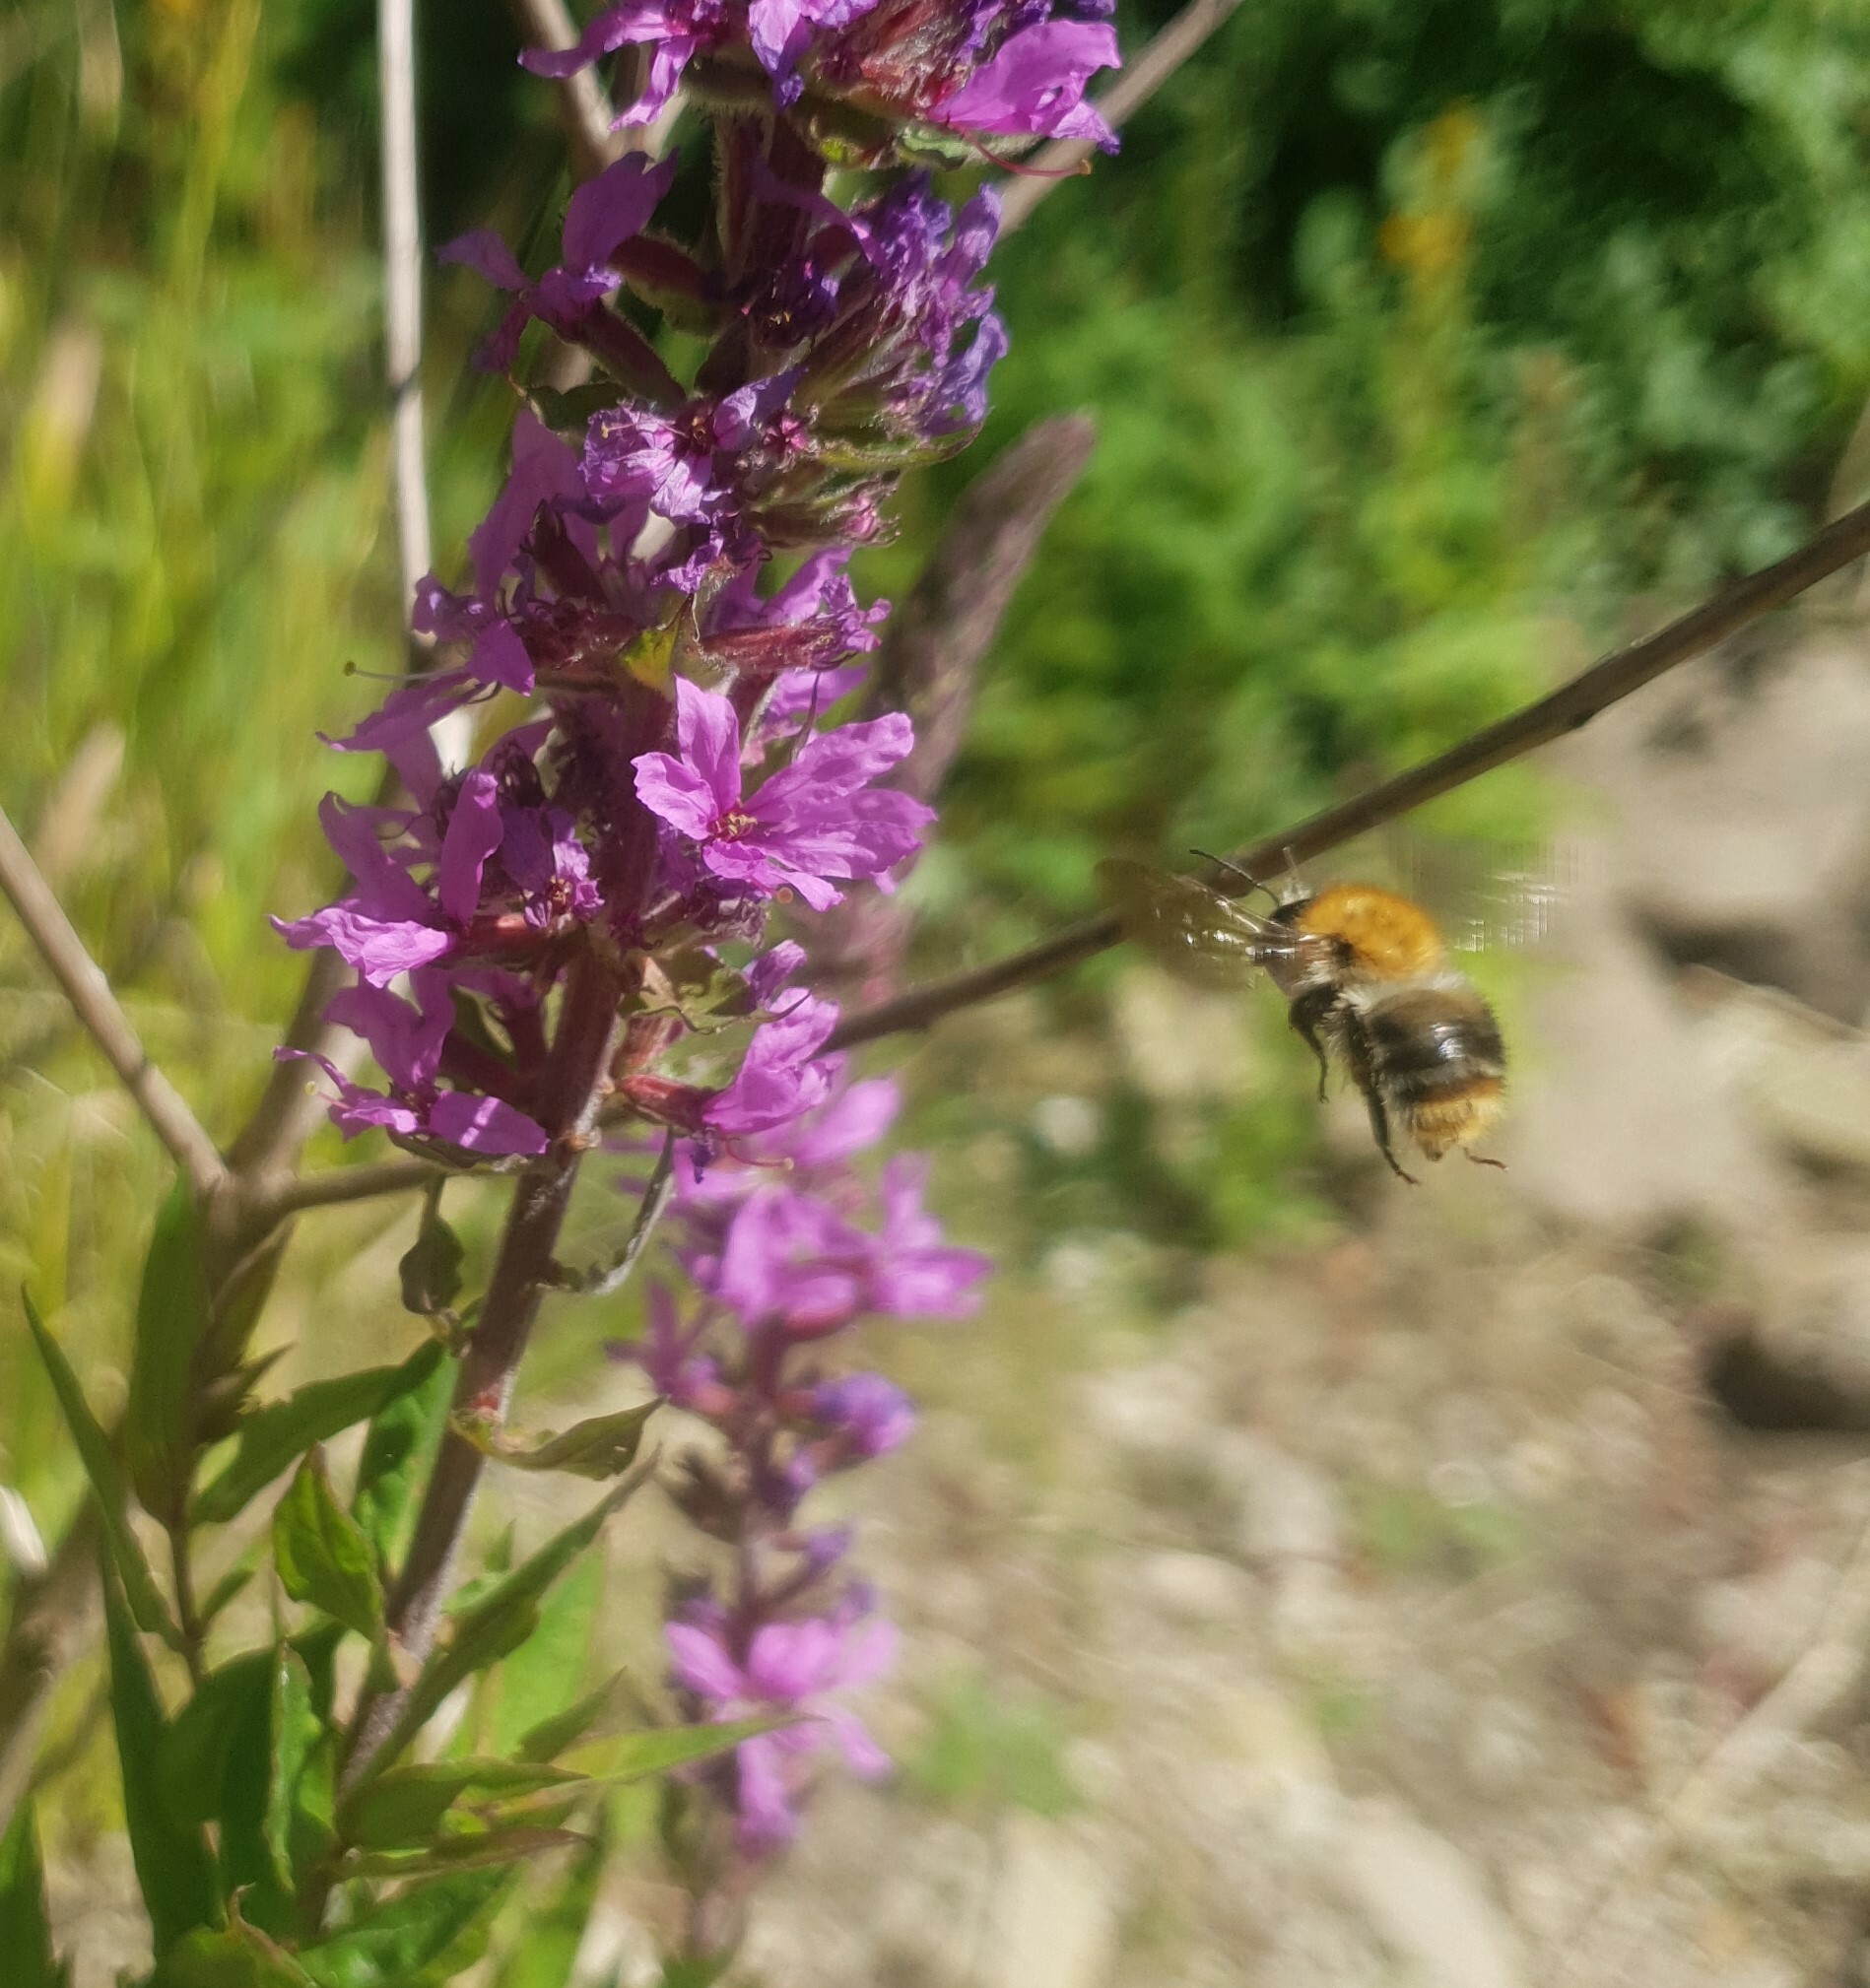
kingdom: Animalia
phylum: Arthropoda
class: Insecta
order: Hymenoptera
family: Apidae
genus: Bombus
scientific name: Bombus pascuorum
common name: Common carder bee
